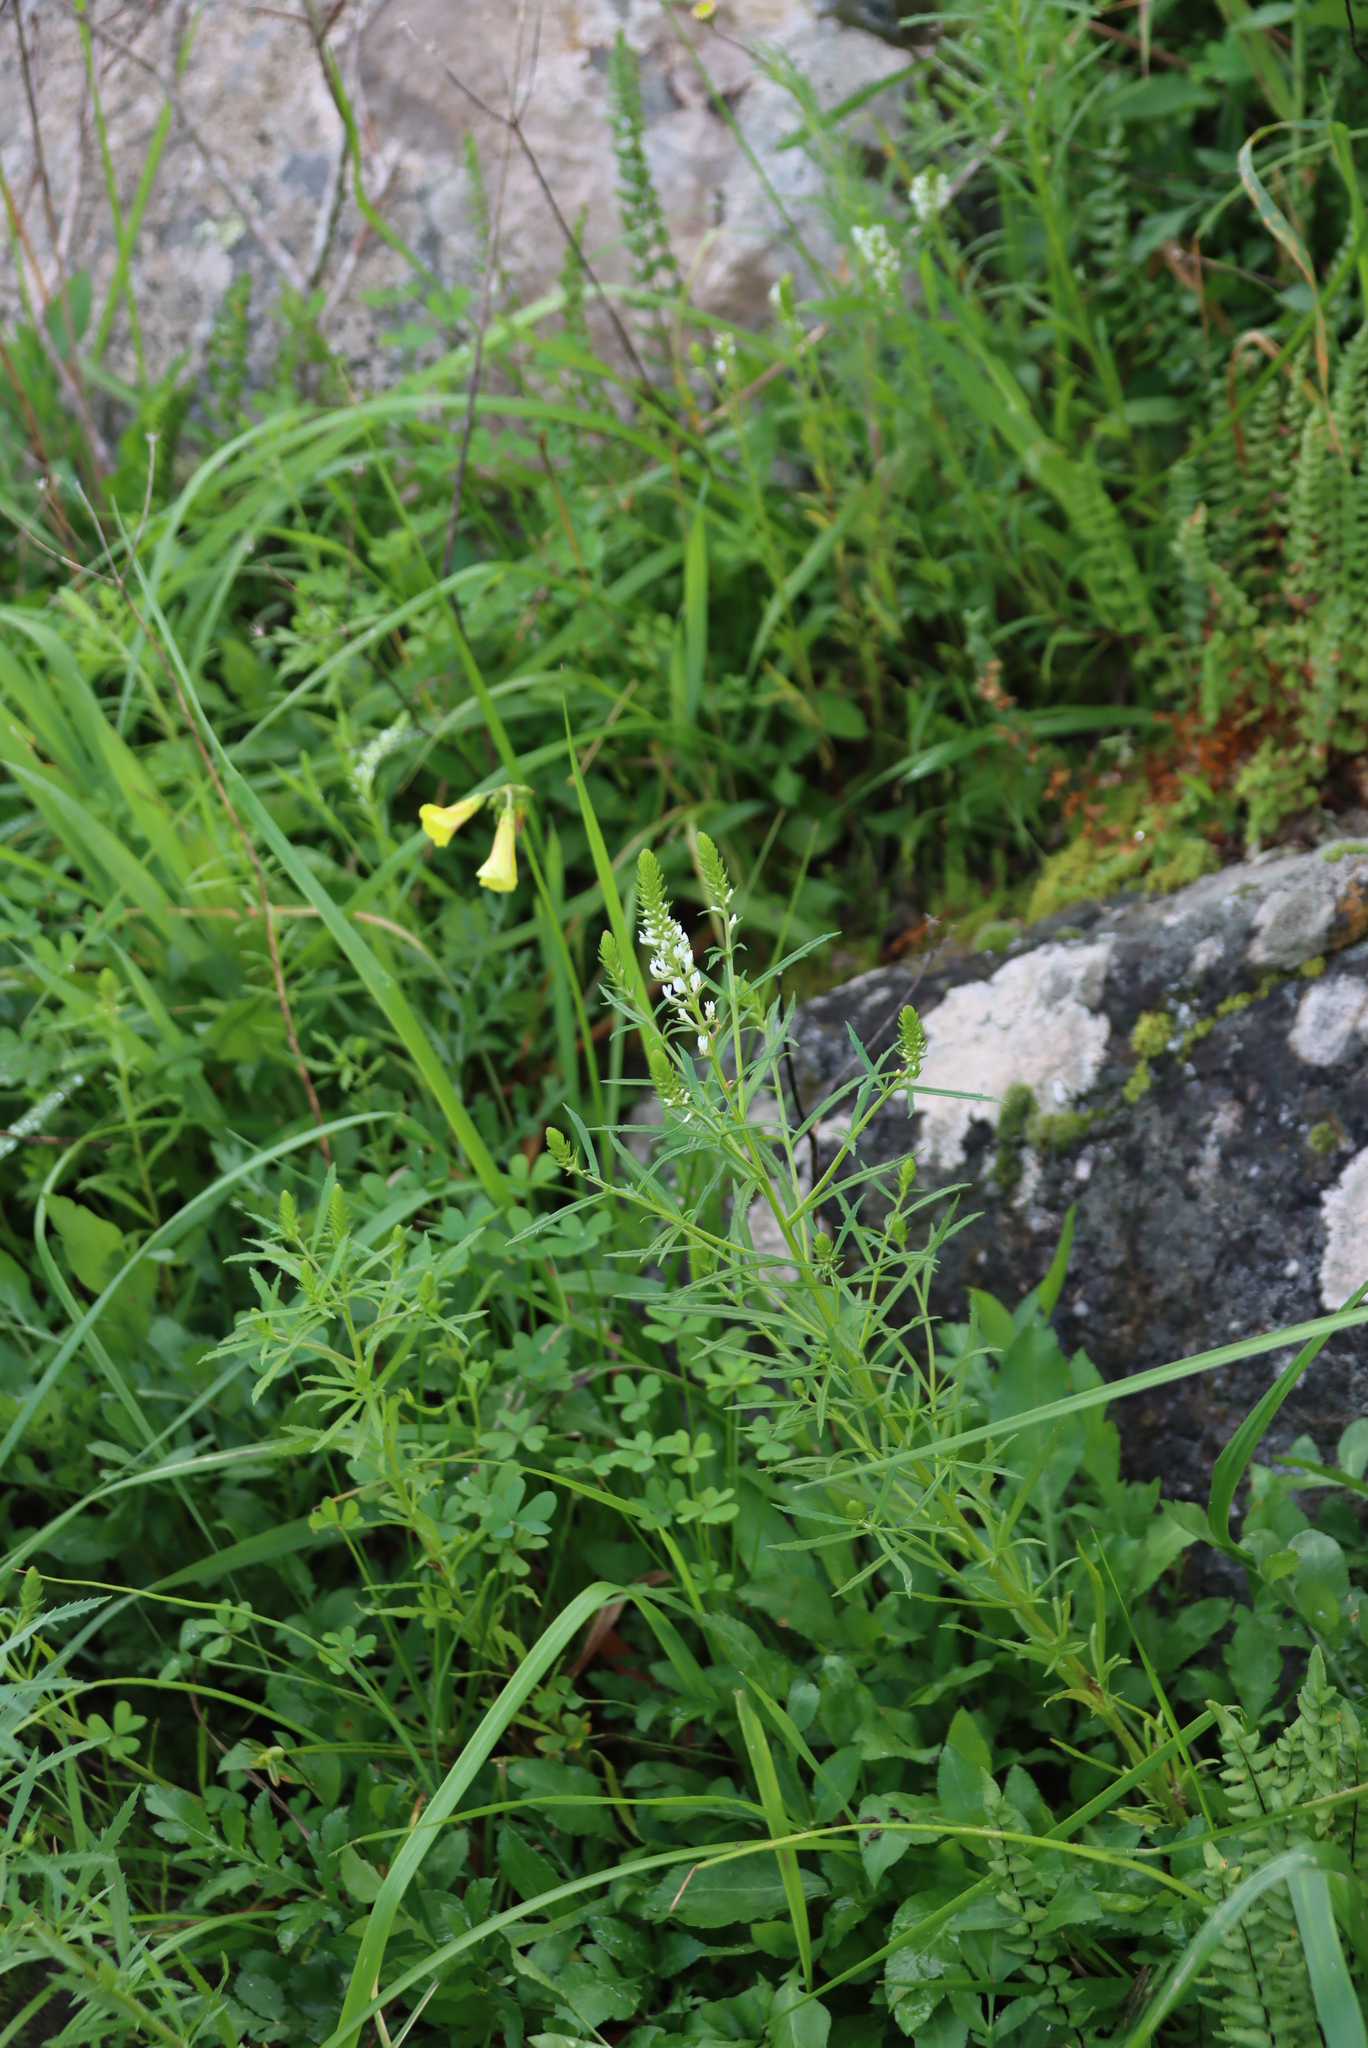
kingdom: Plantae
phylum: Tracheophyta
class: Magnoliopsida
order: Oxalidales
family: Oxalidaceae
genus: Oxalis
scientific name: Oxalis pes-caprae
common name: Bermuda-buttercup
